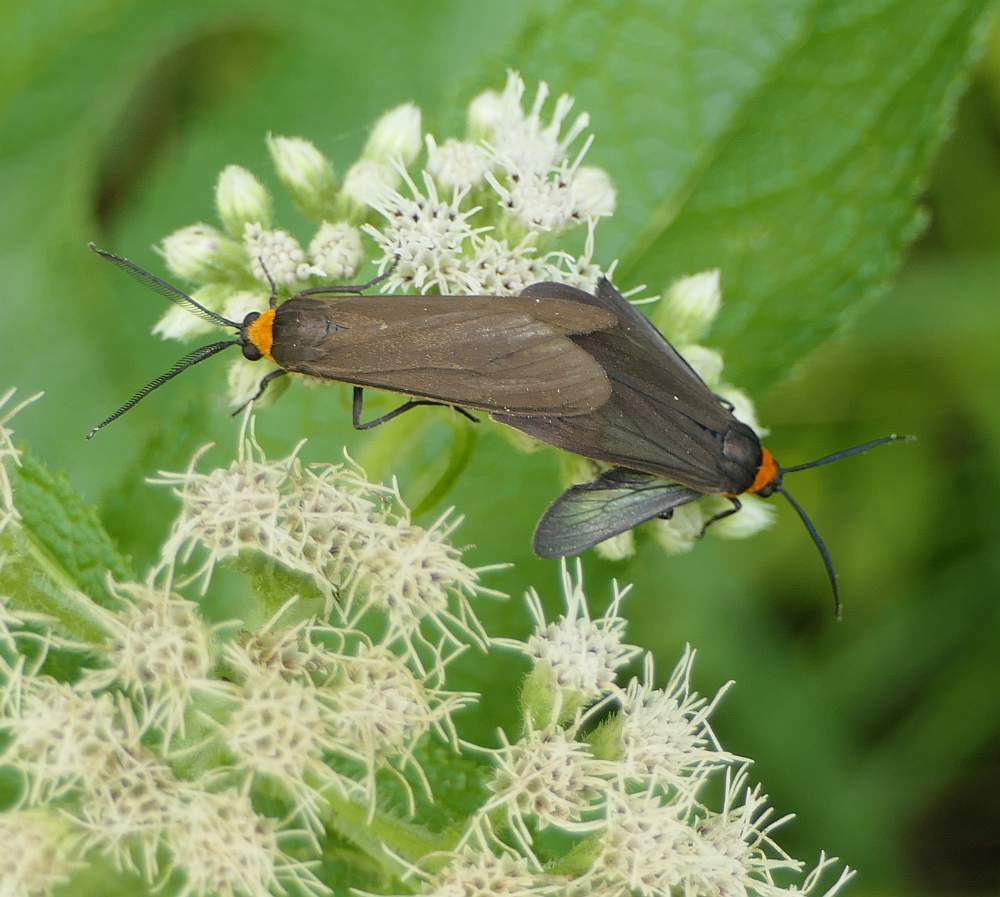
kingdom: Animalia
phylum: Arthropoda
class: Insecta
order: Lepidoptera
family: Erebidae
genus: Cisseps
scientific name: Cisseps fulvicollis
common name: Yellow-collared scape moth
